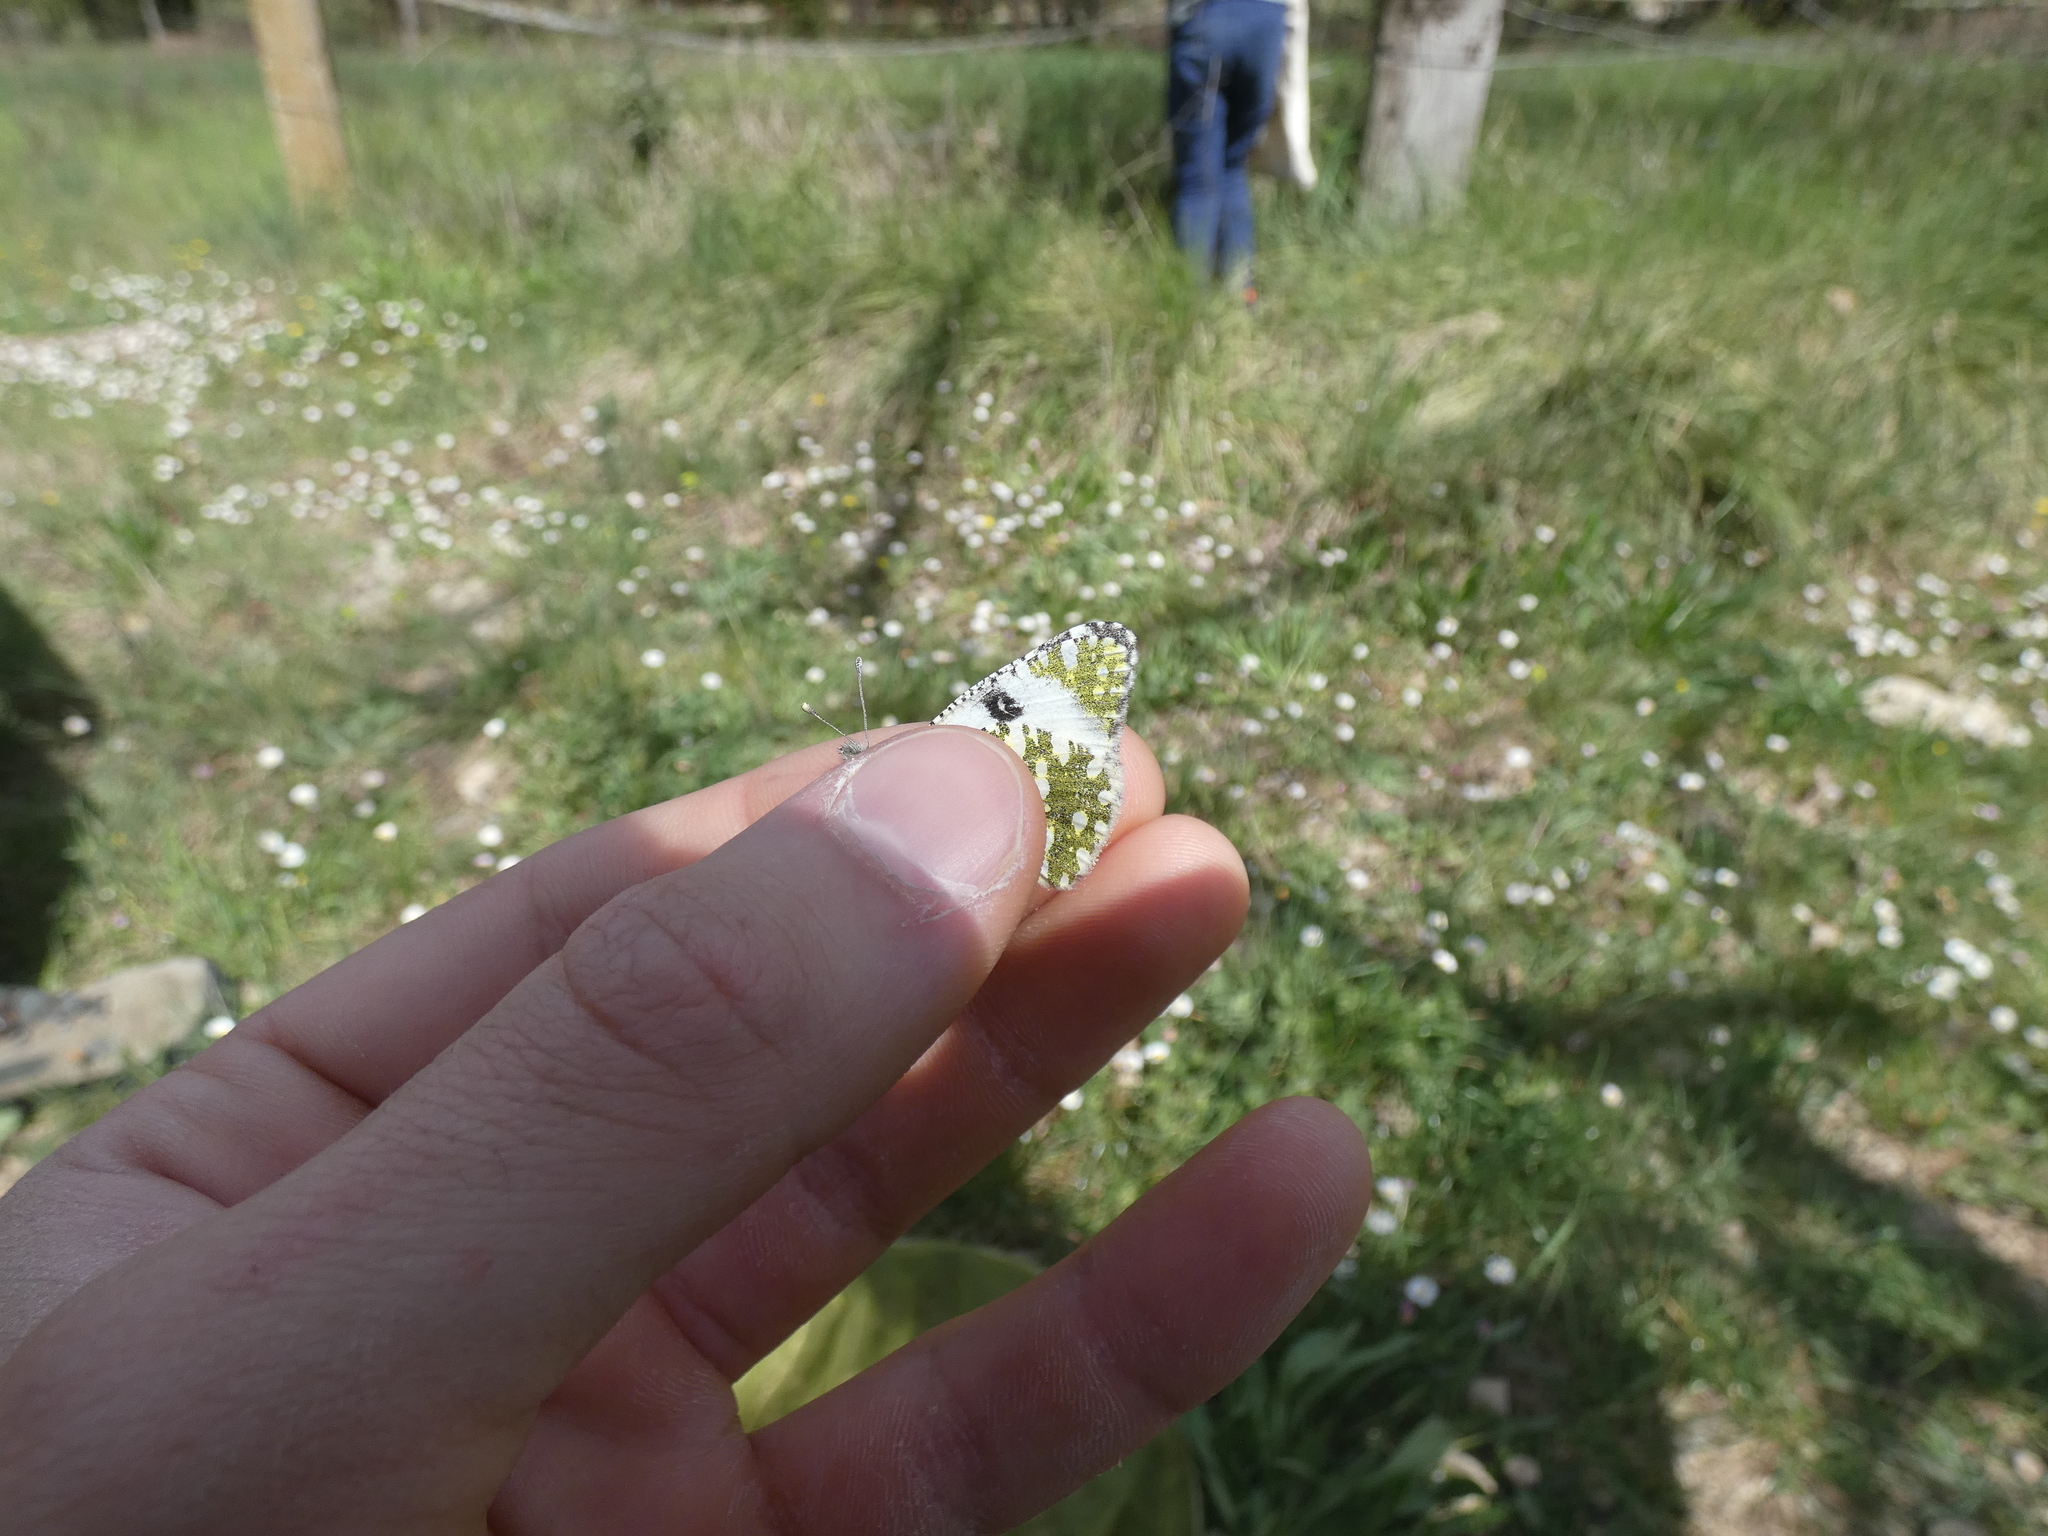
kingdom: Animalia
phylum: Arthropoda
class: Insecta
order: Lepidoptera
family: Pieridae
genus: Euchloe
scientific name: Euchloe crameri
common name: Western dappled white
